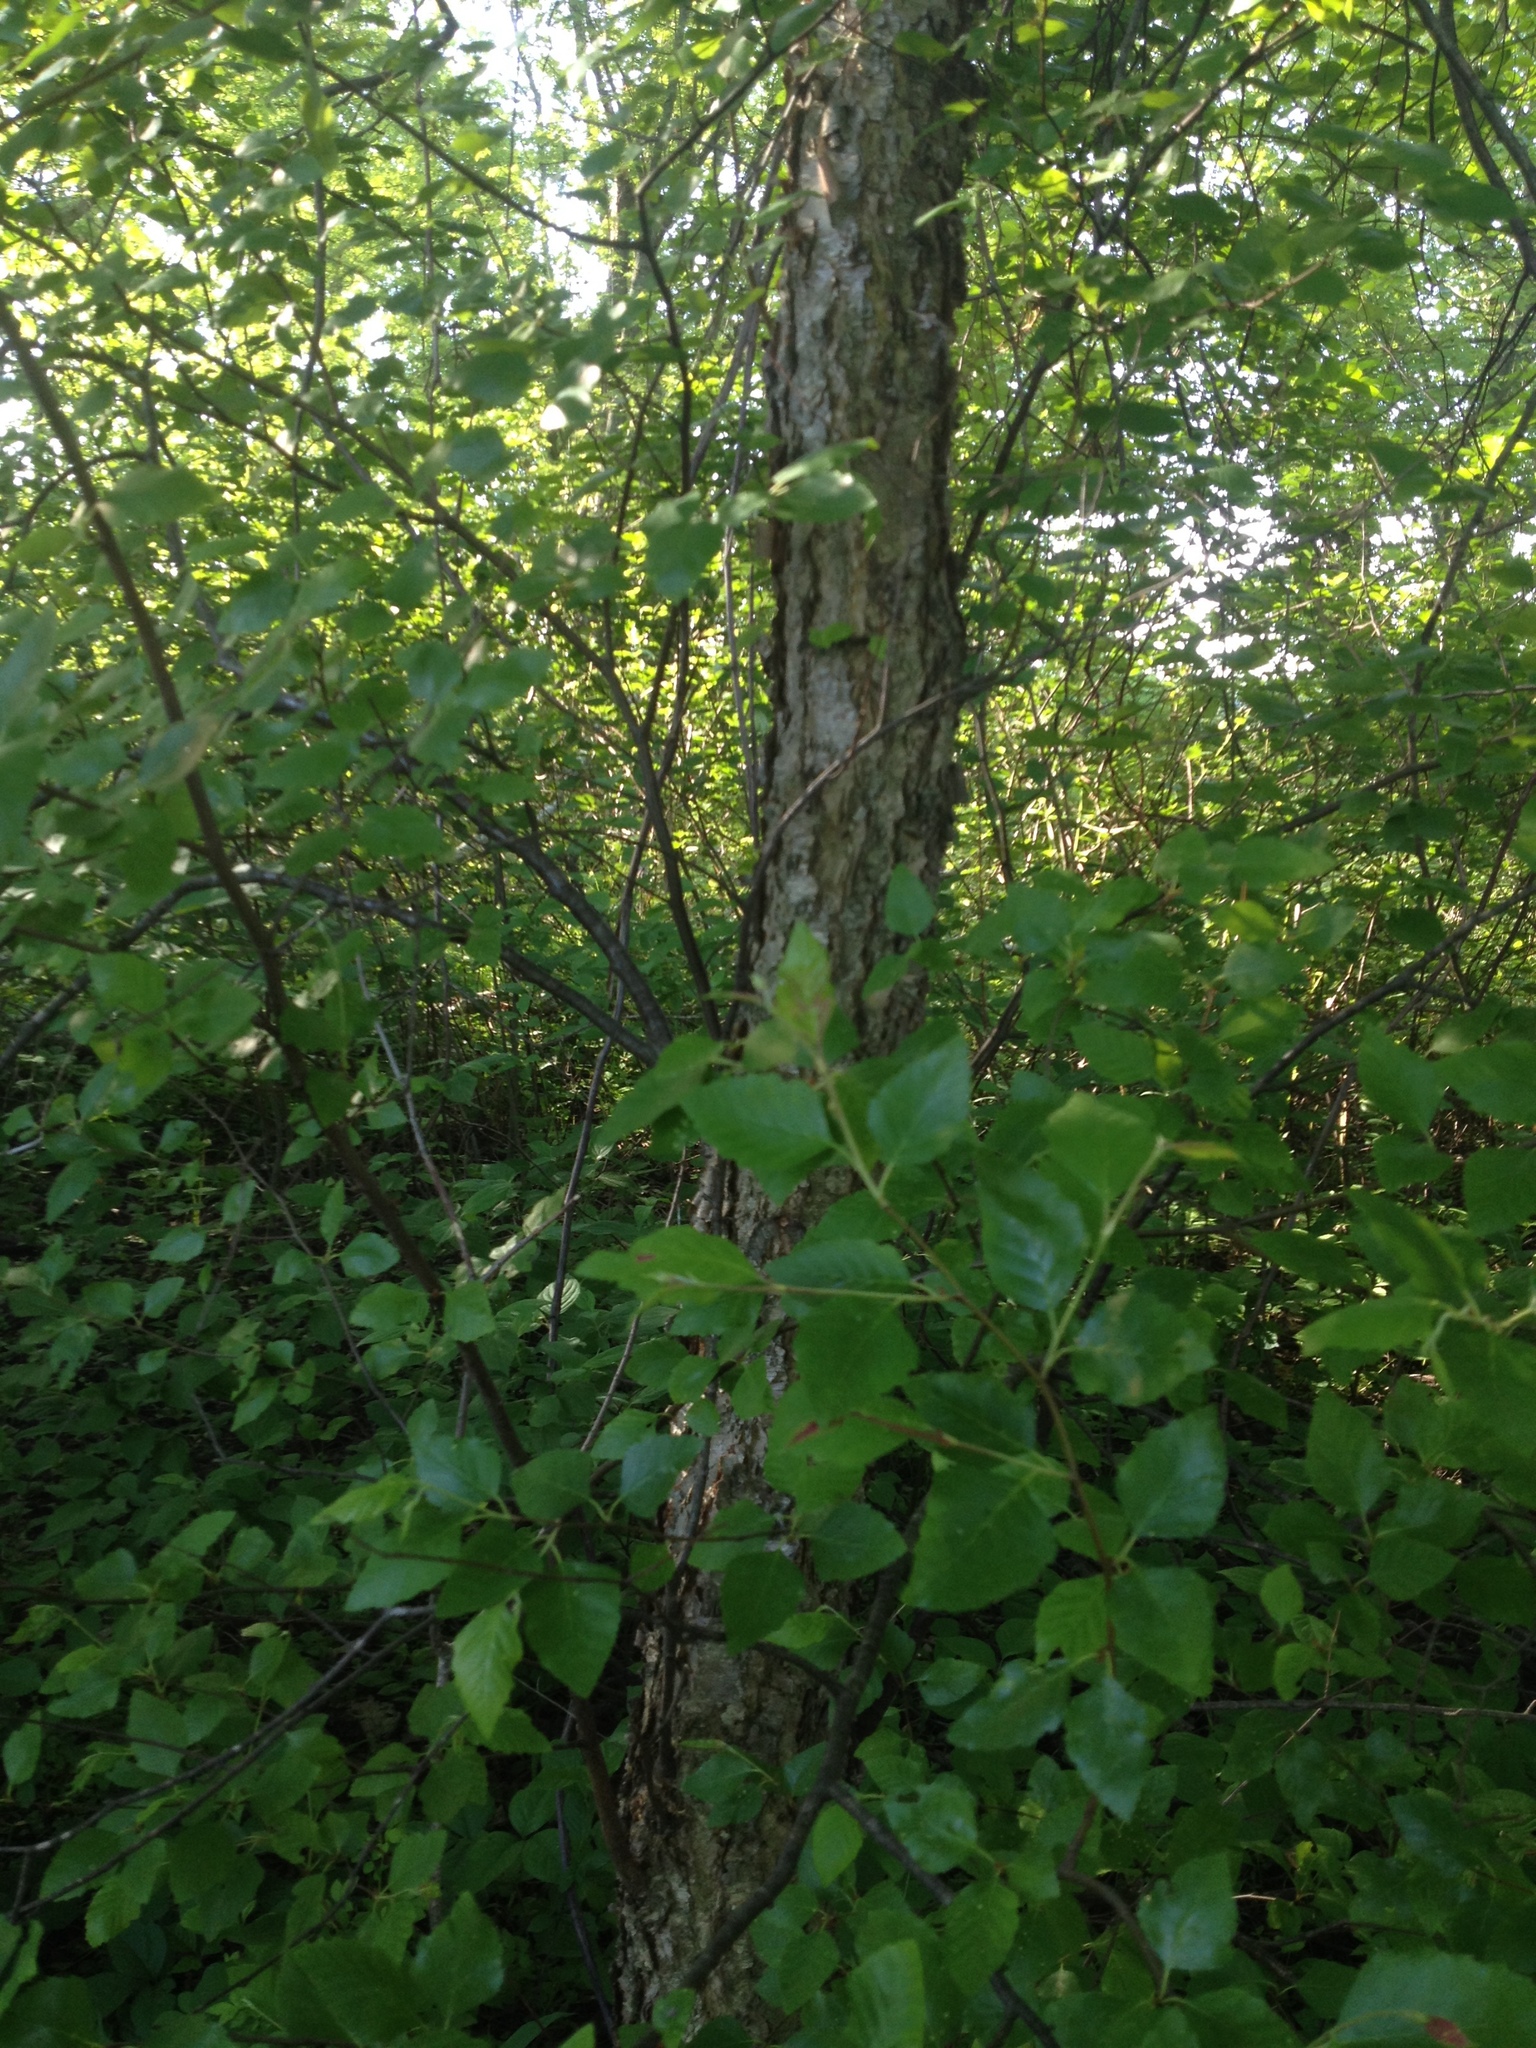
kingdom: Plantae
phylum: Tracheophyta
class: Magnoliopsida
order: Fagales
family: Betulaceae
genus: Betula
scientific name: Betula nigra
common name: Black birch
